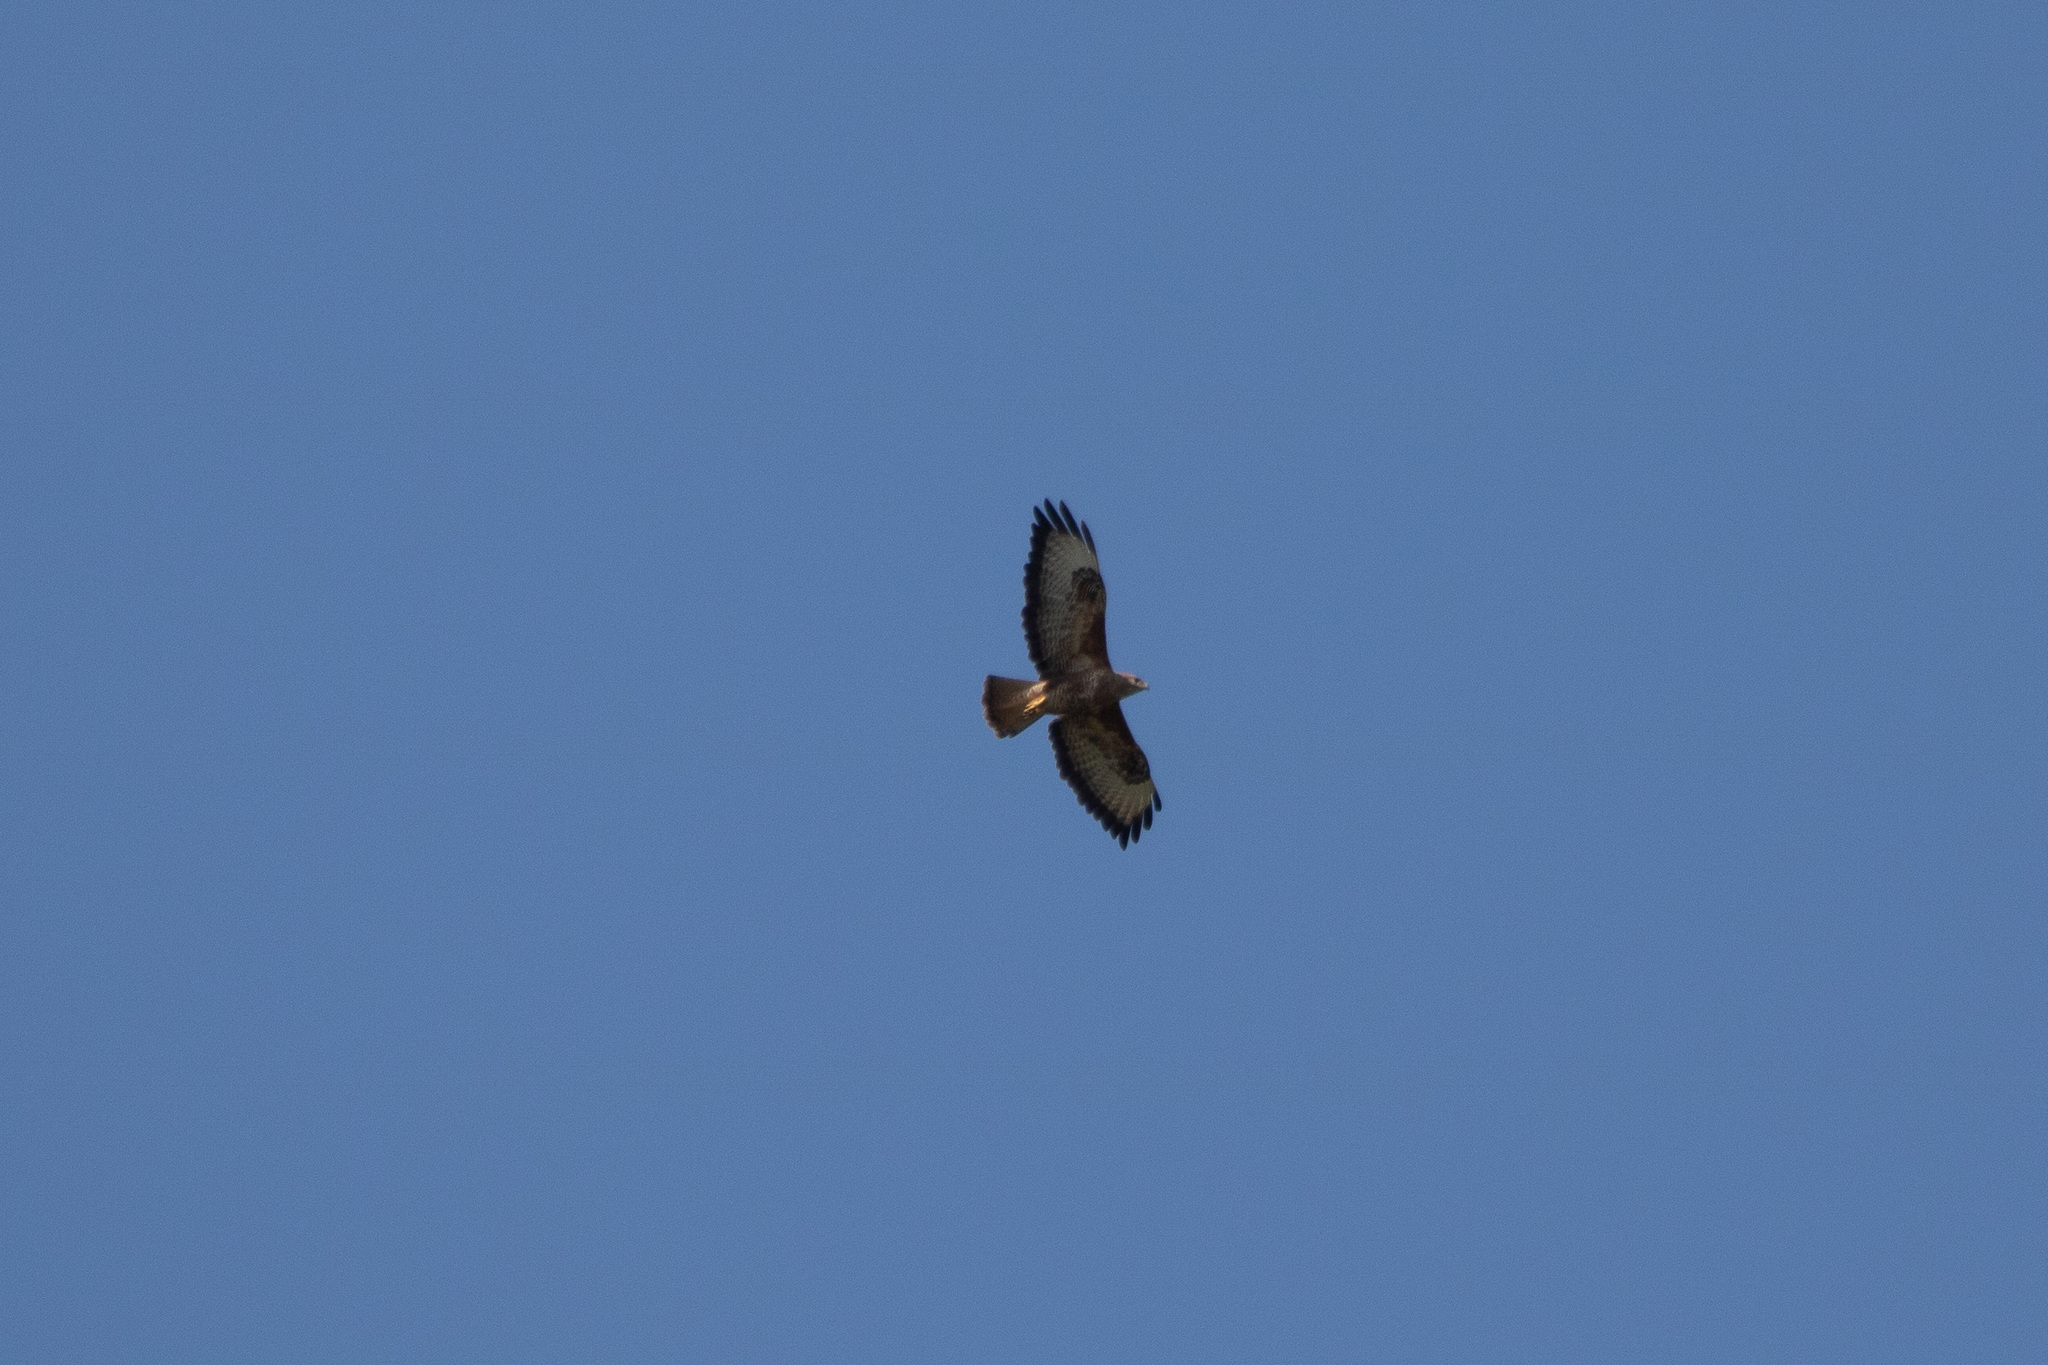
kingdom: Animalia
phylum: Chordata
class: Aves
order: Accipitriformes
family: Accipitridae
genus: Buteo
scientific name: Buteo buteo
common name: Common buzzard
